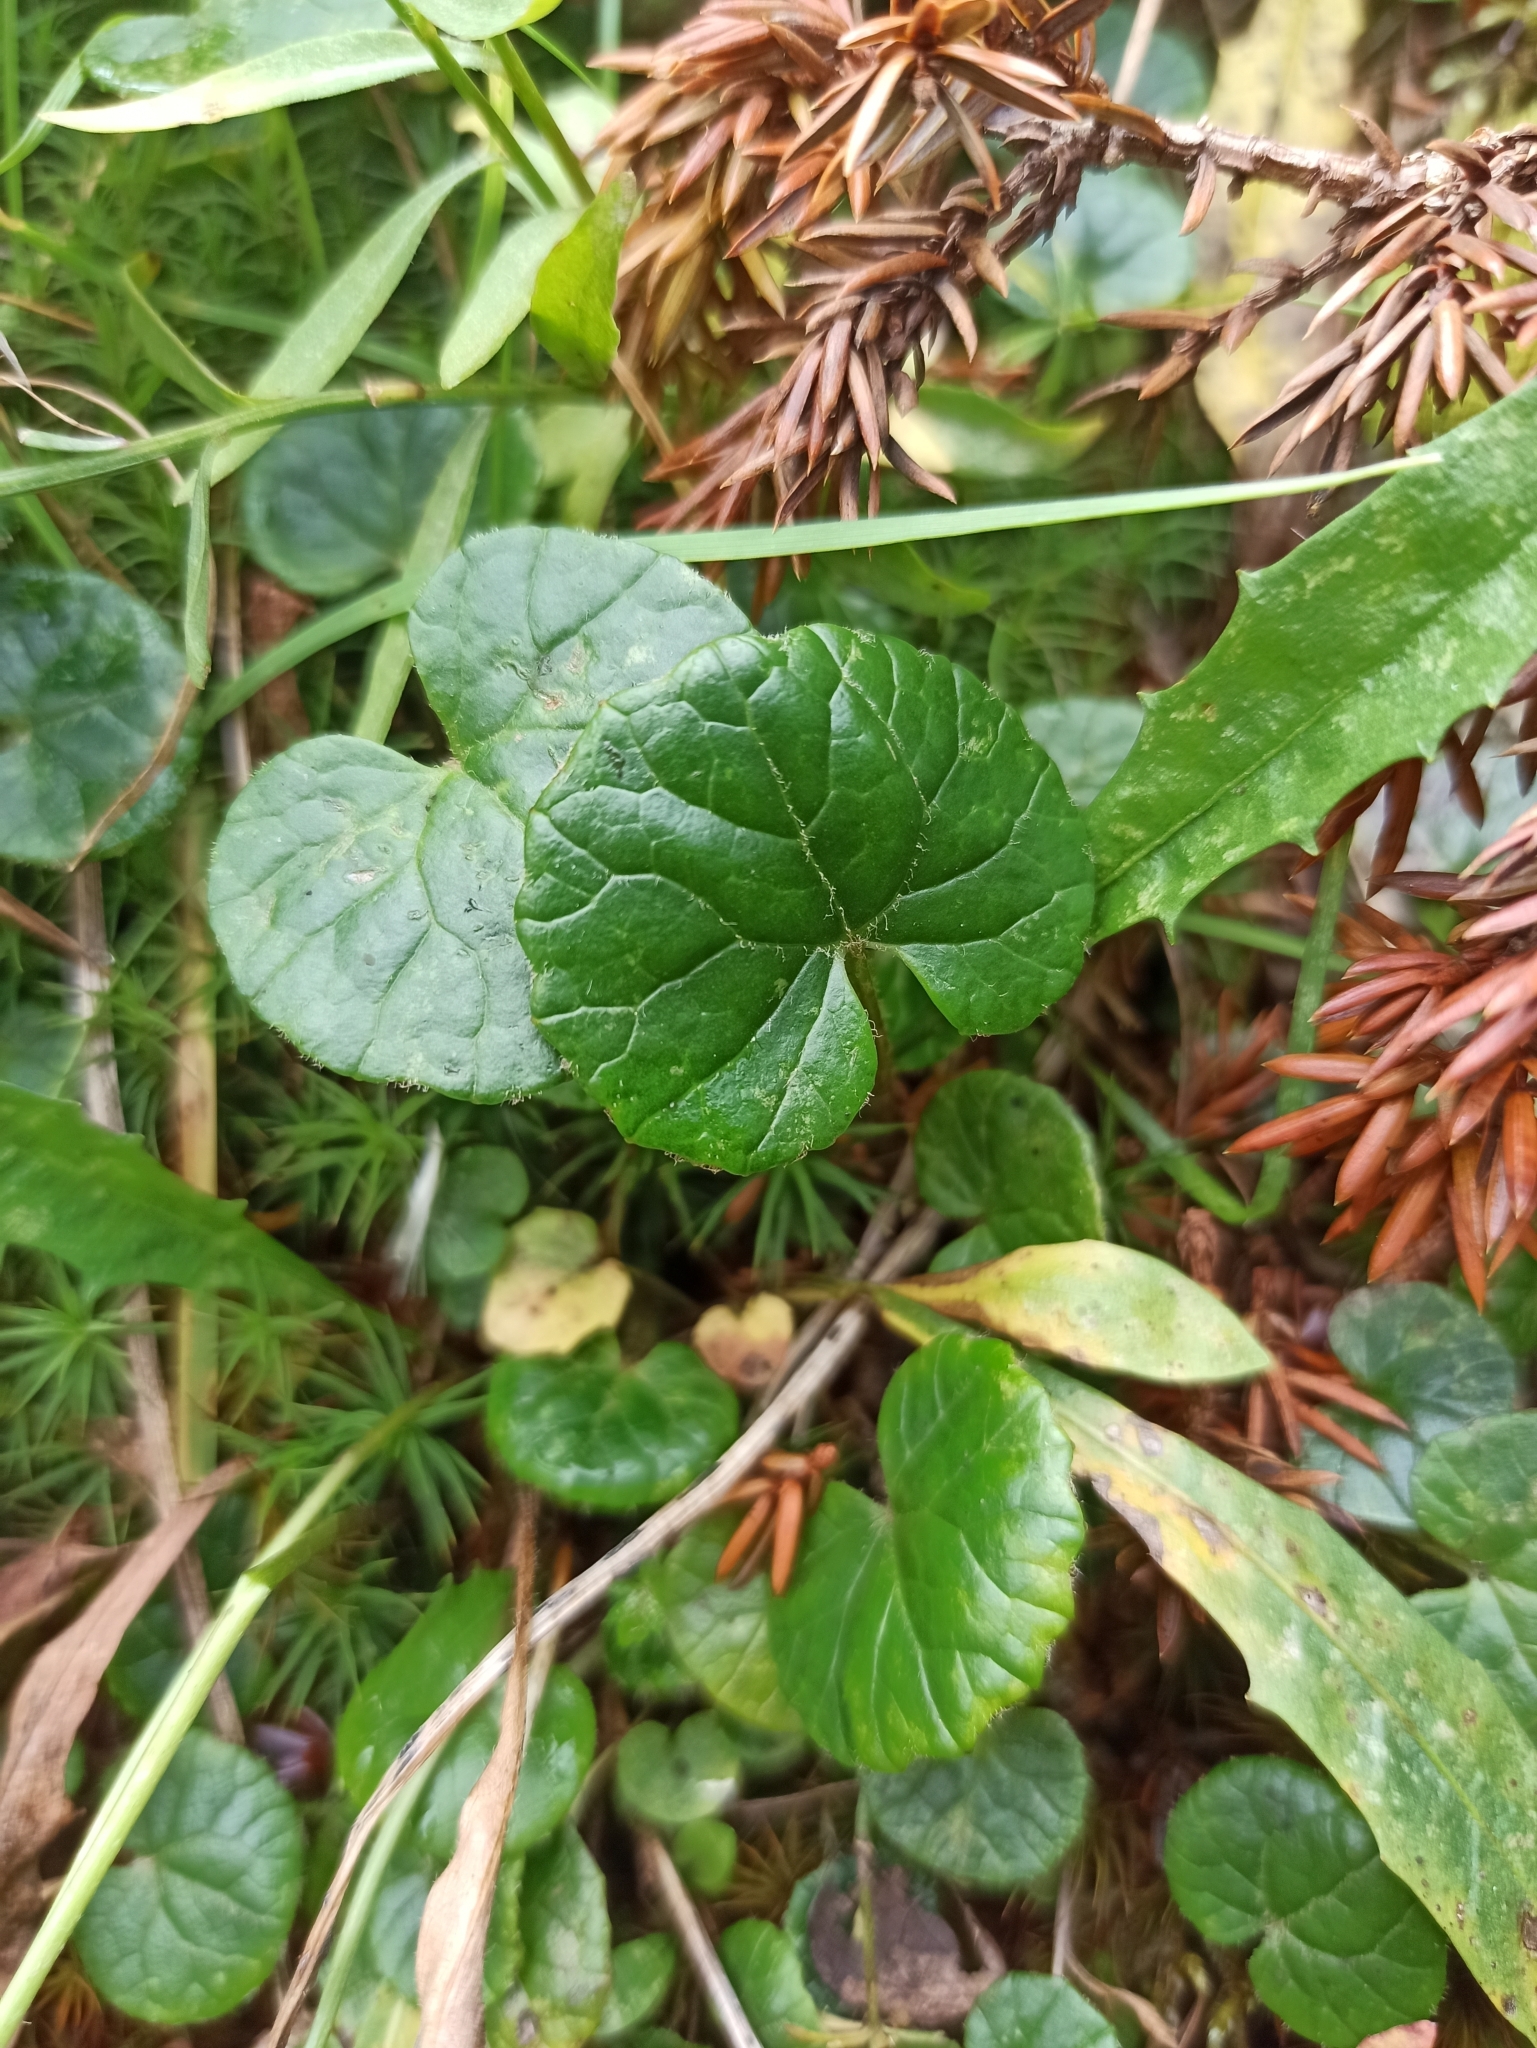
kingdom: Plantae
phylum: Tracheophyta
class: Magnoliopsida
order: Asterales
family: Asteraceae
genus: Homogyne
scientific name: Homogyne alpina
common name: Purple colt's-foot
